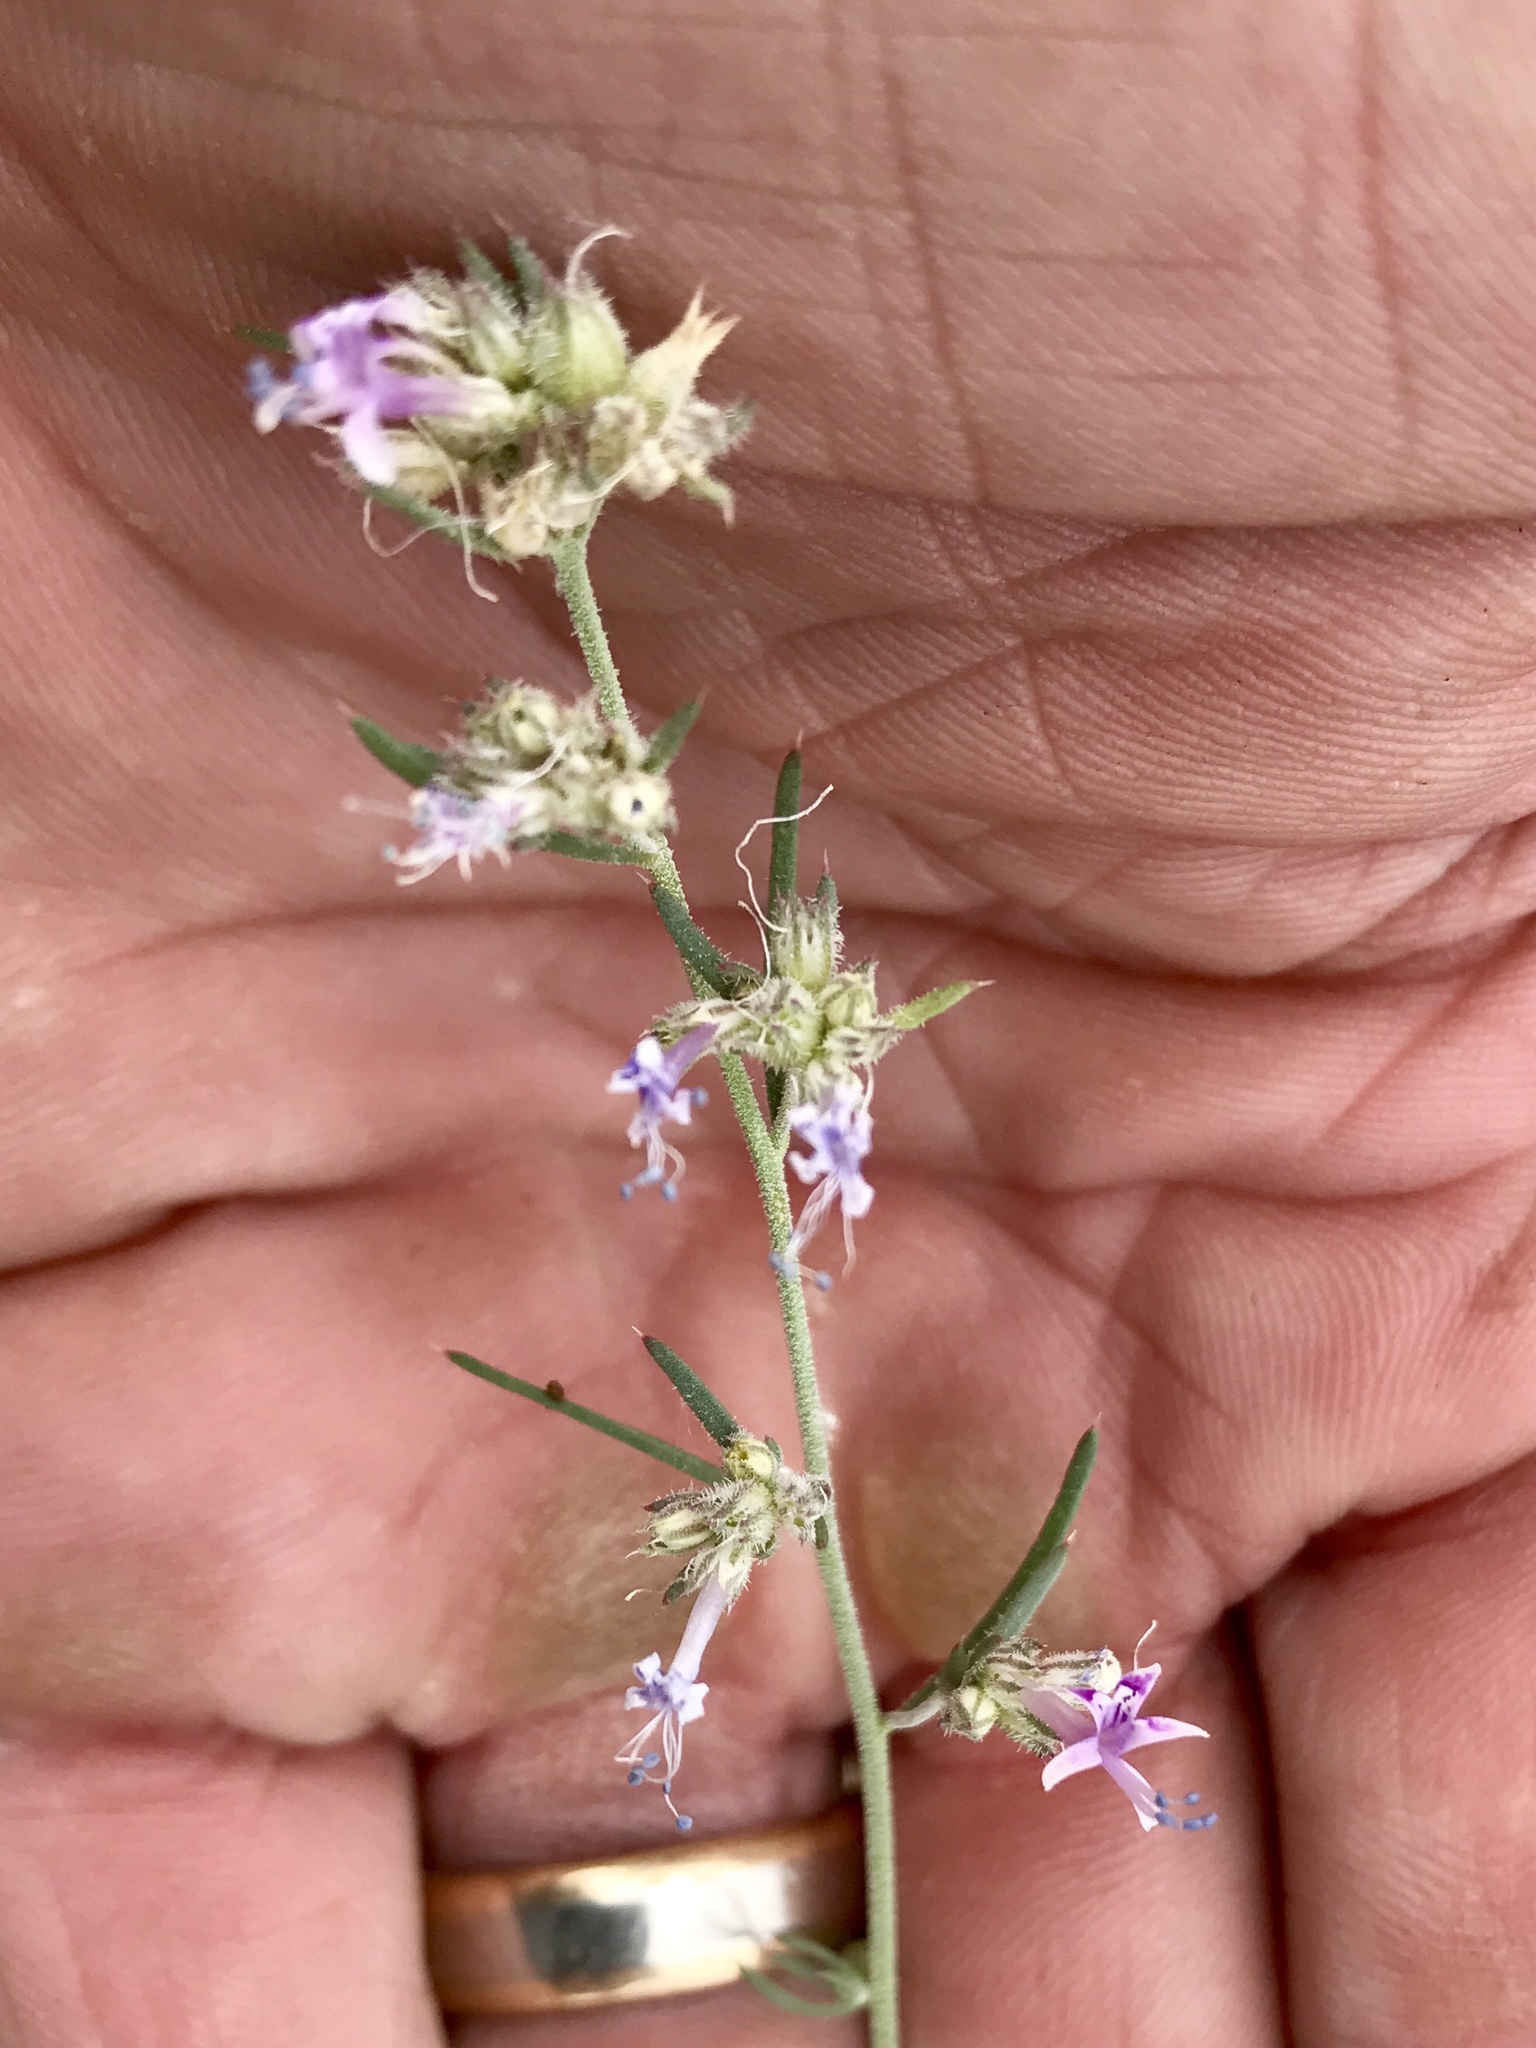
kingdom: Plantae
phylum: Tracheophyta
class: Magnoliopsida
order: Ericales
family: Polemoniaceae
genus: Ipomopsis
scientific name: Ipomopsis multiflora
